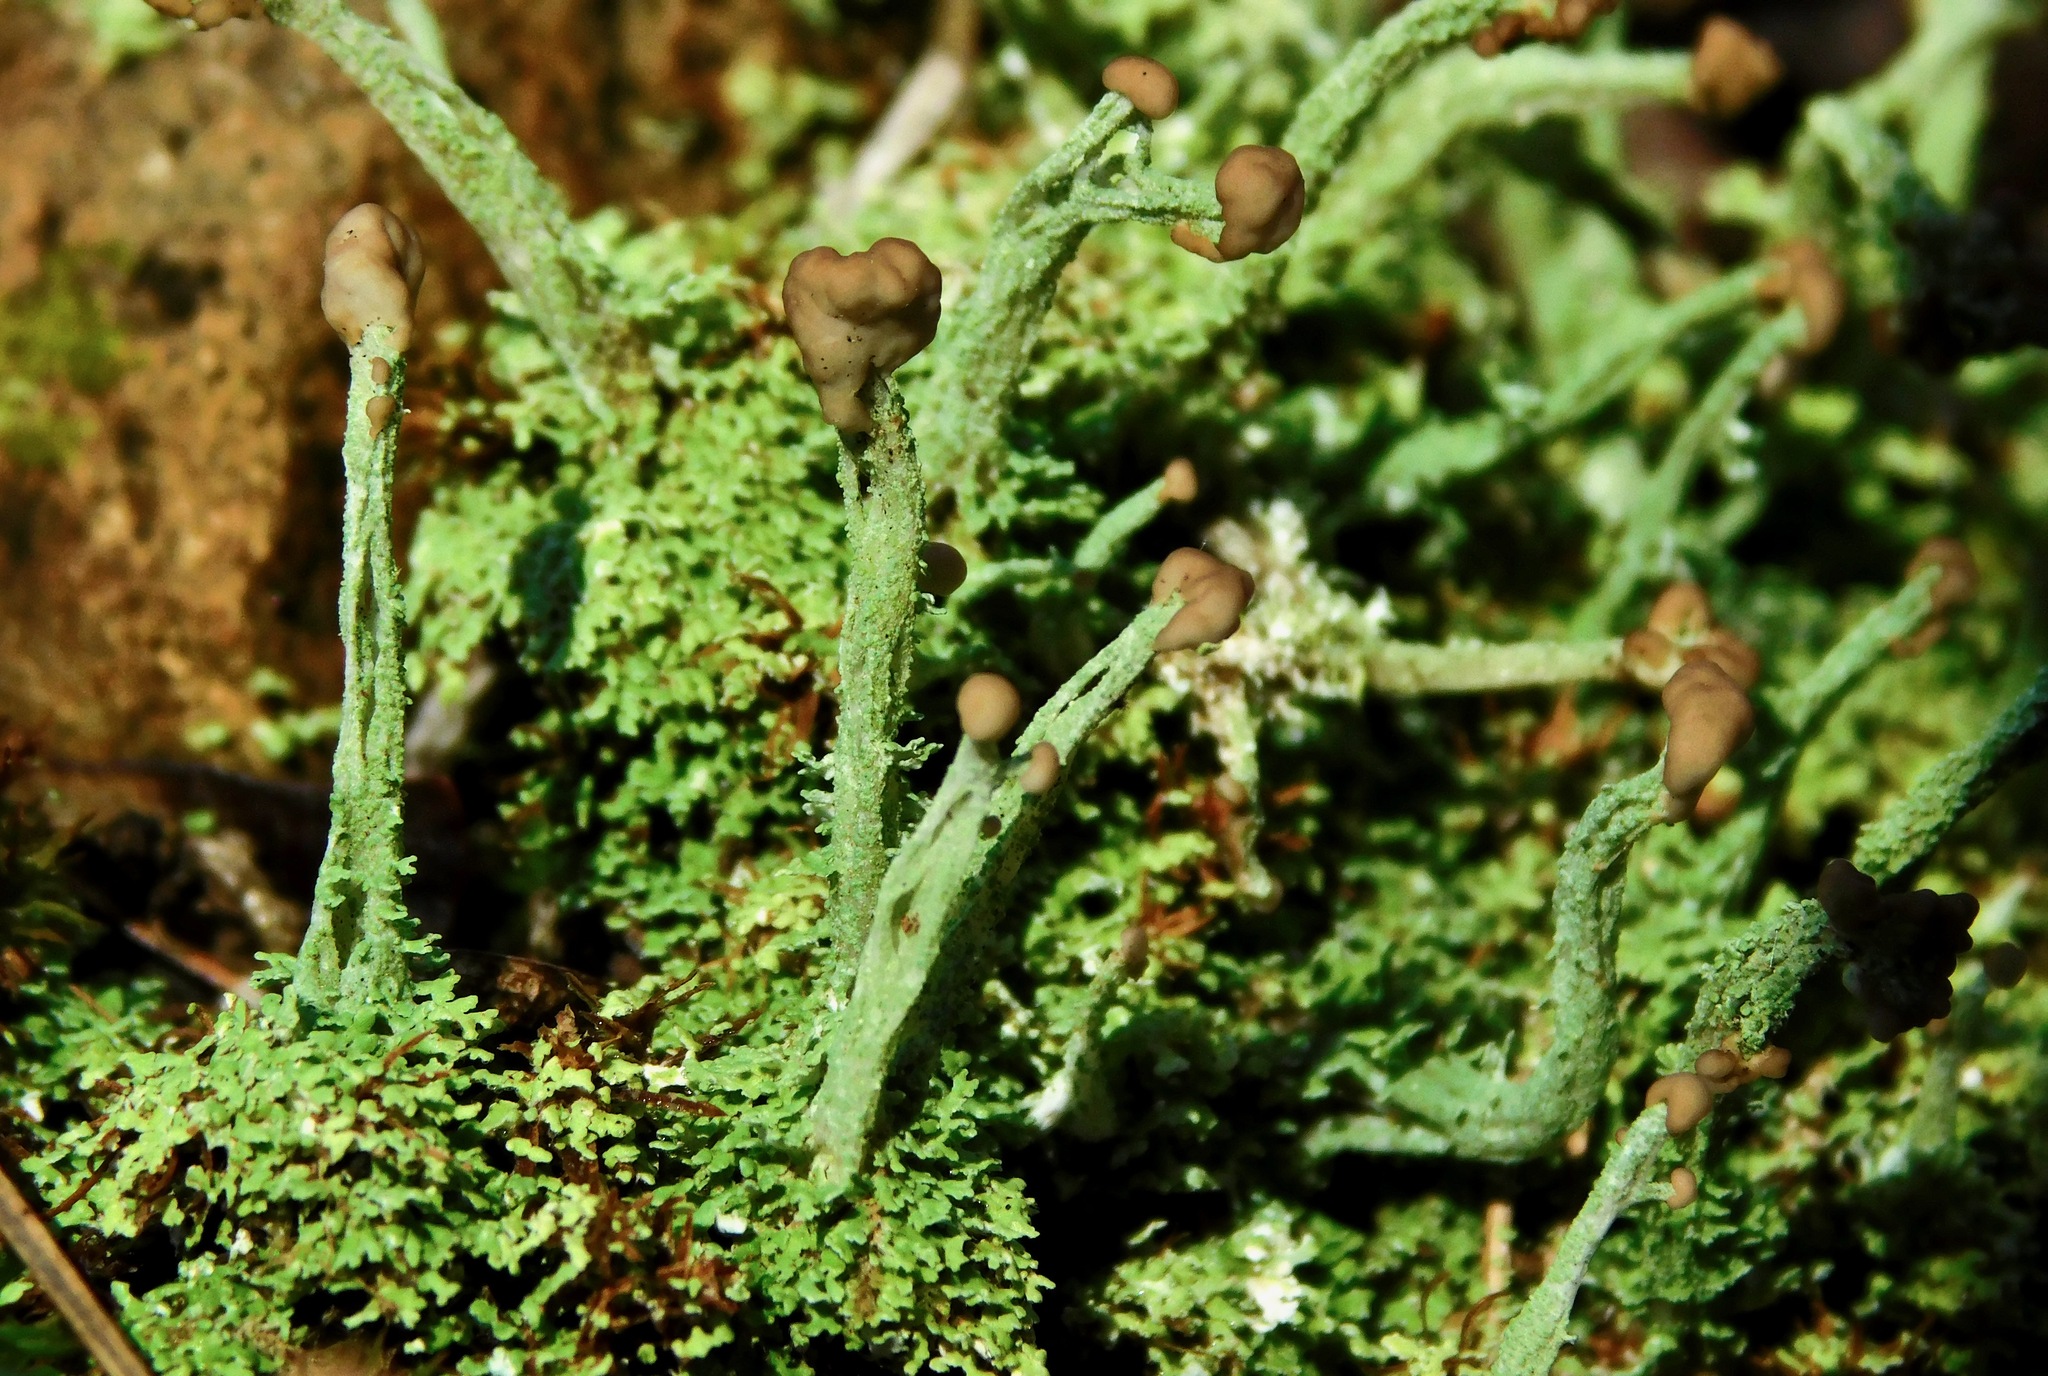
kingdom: Fungi
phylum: Ascomycota
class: Lecanoromycetes
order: Lecanorales
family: Cladoniaceae
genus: Cladonia
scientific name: Cladonia peziziformis
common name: Cup lichen
